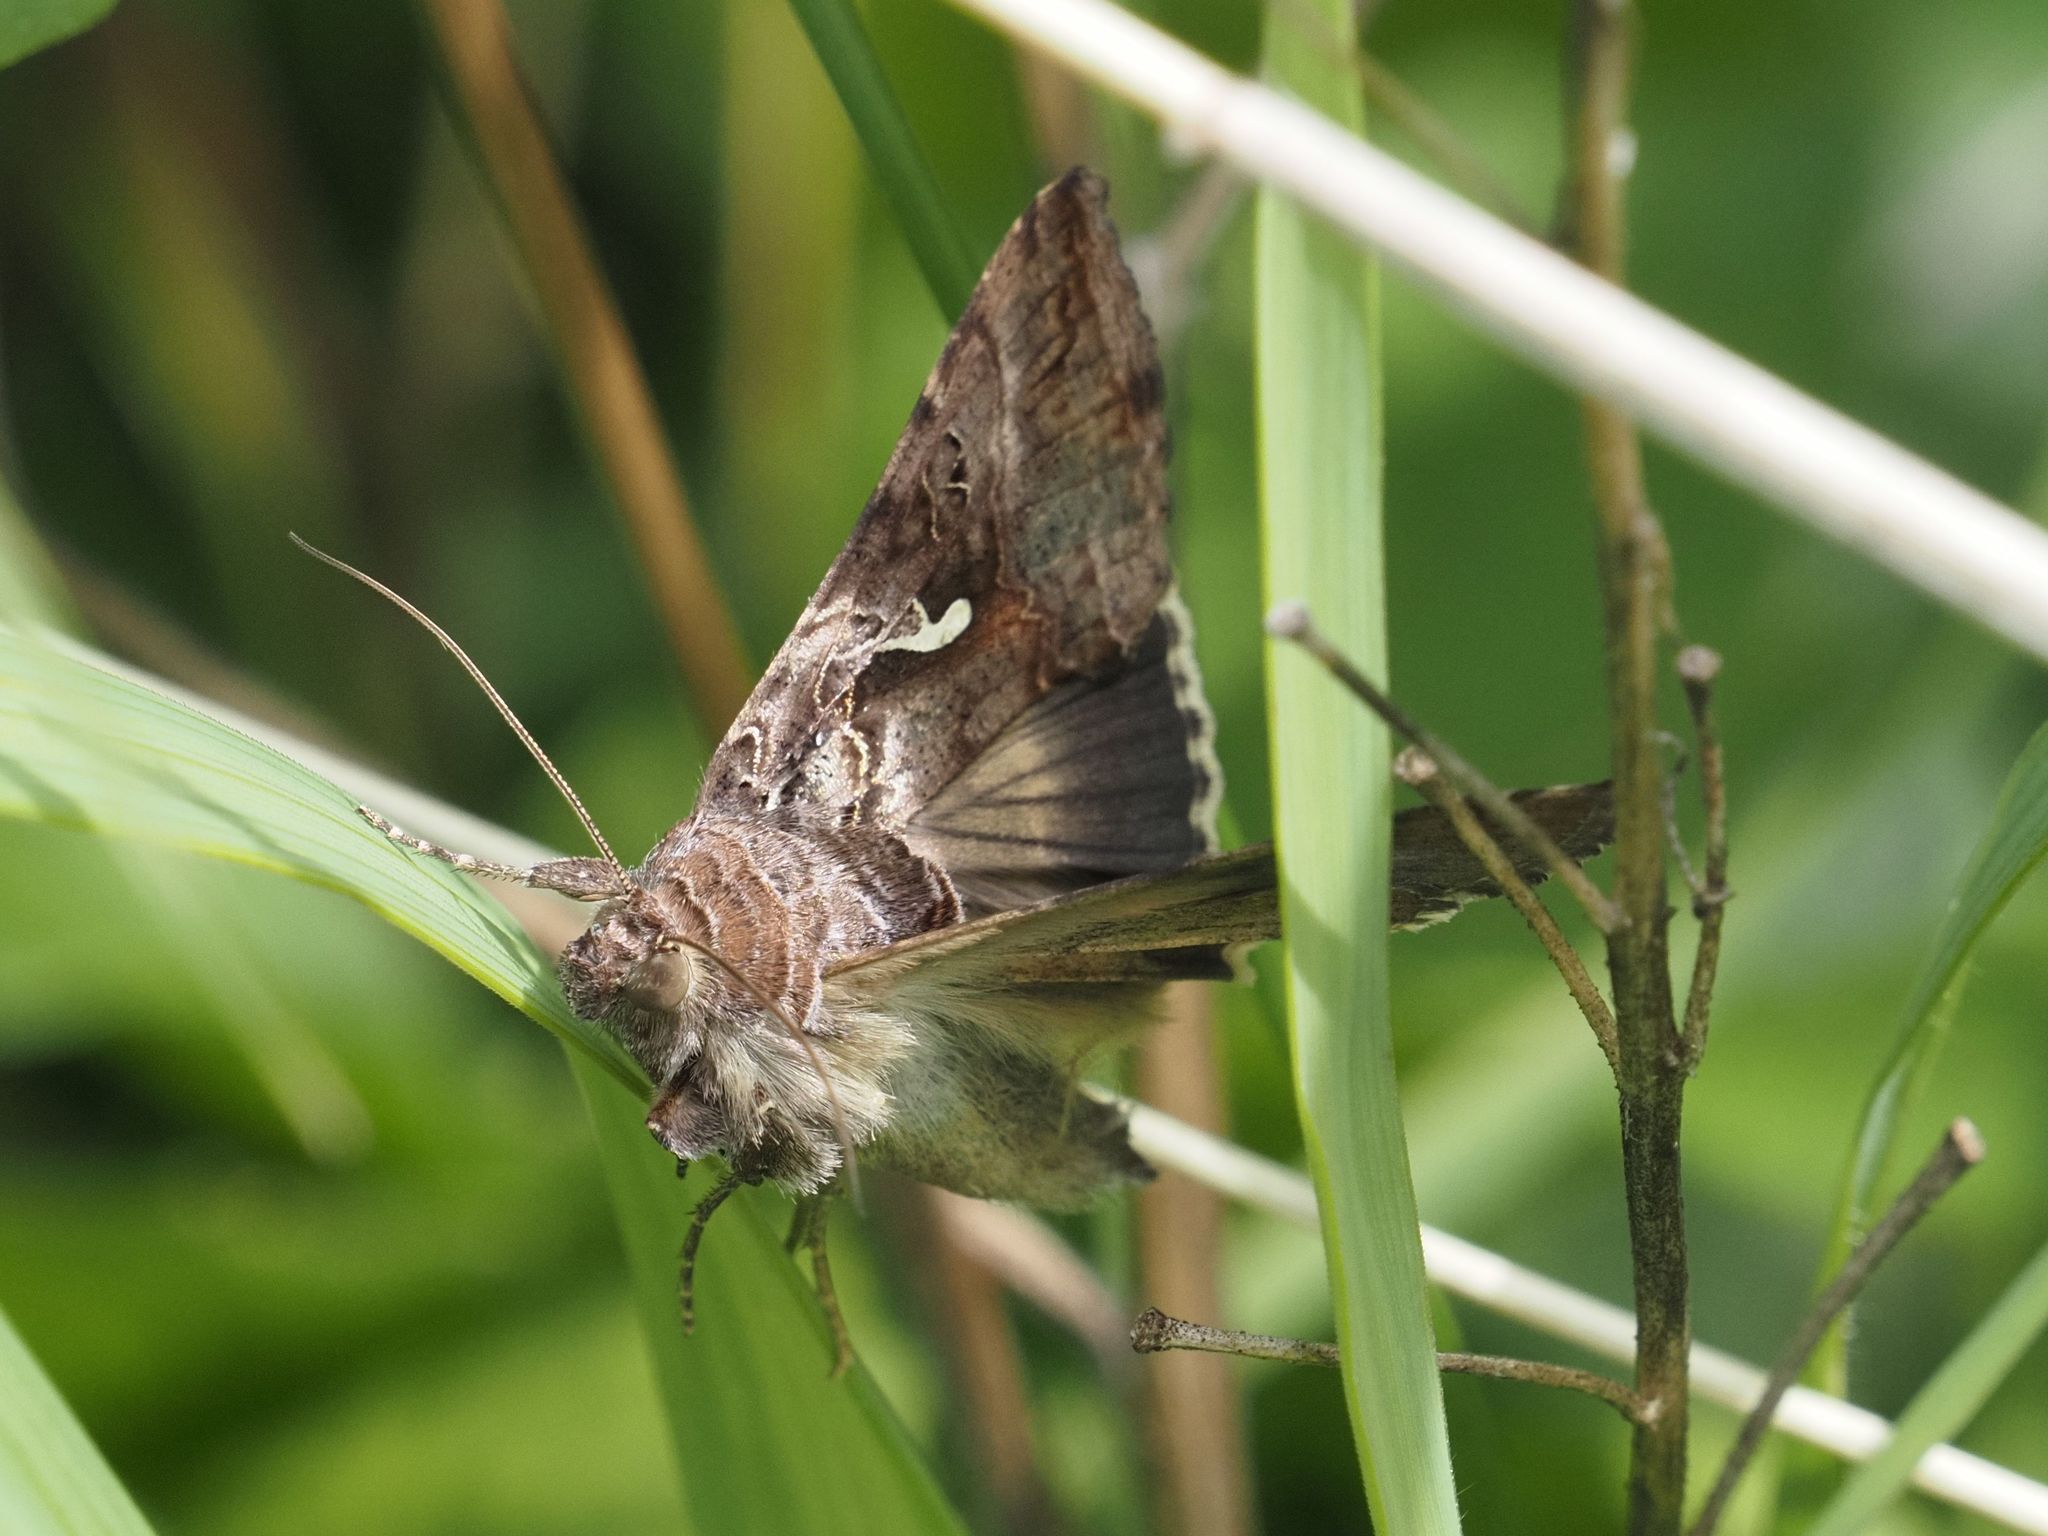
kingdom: Animalia
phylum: Arthropoda
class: Insecta
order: Lepidoptera
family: Noctuidae
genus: Autographa
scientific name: Autographa gamma
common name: Silver y
